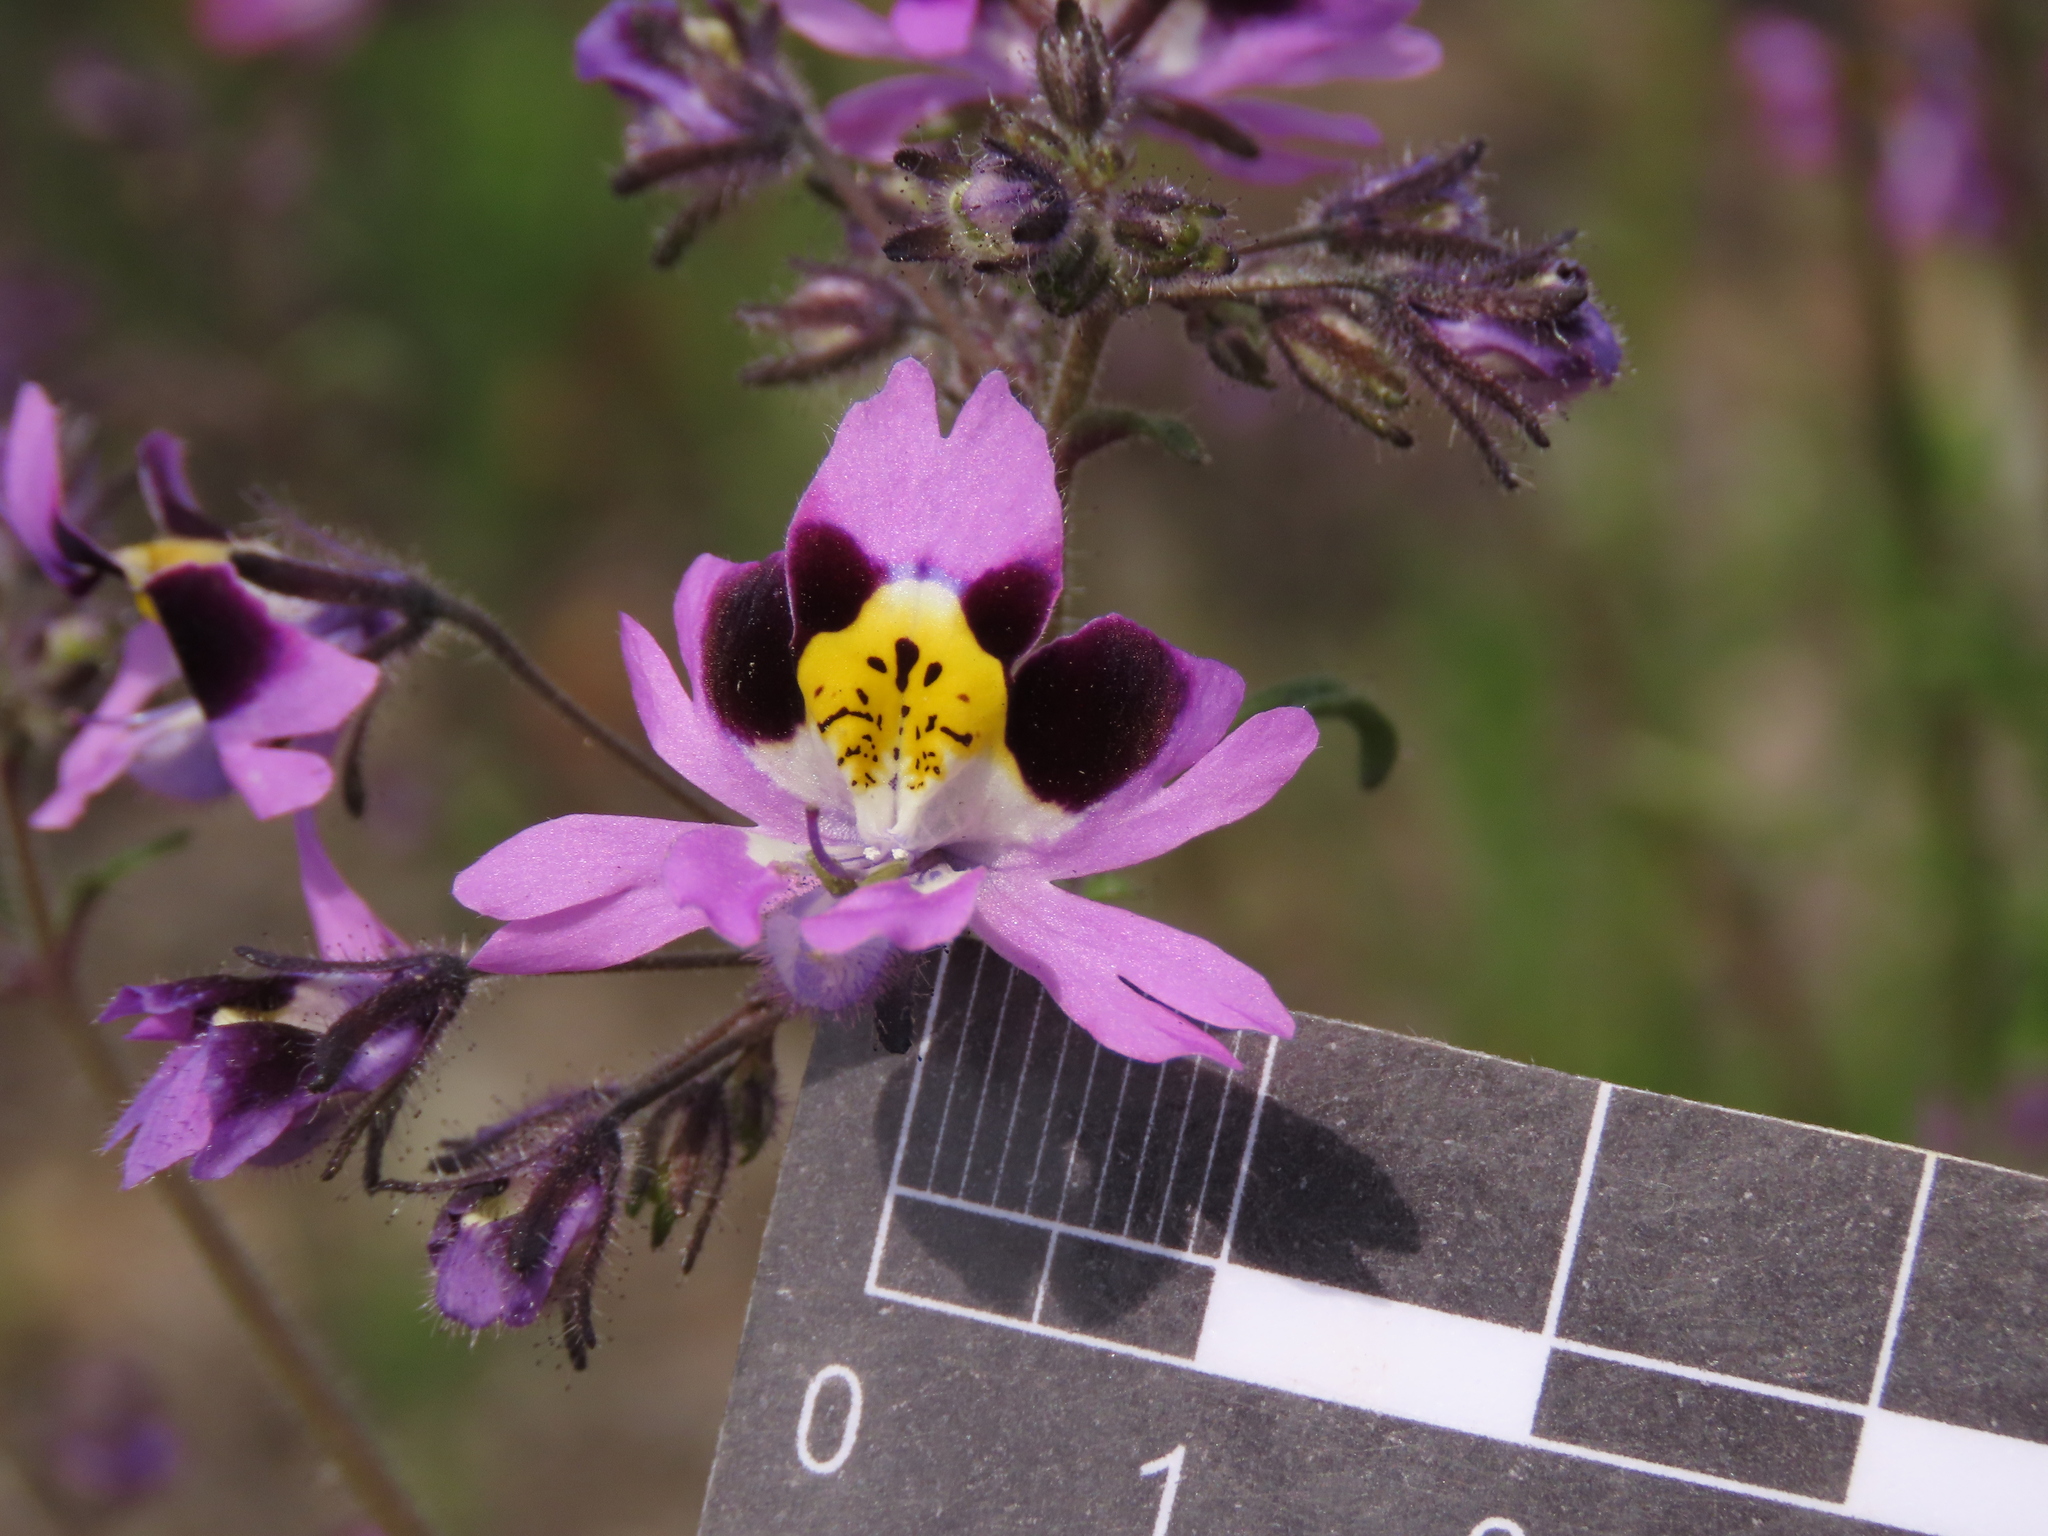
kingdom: Plantae
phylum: Tracheophyta
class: Magnoliopsida
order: Solanales
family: Solanaceae
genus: Schizanthus
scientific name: Schizanthus carlomunozii
